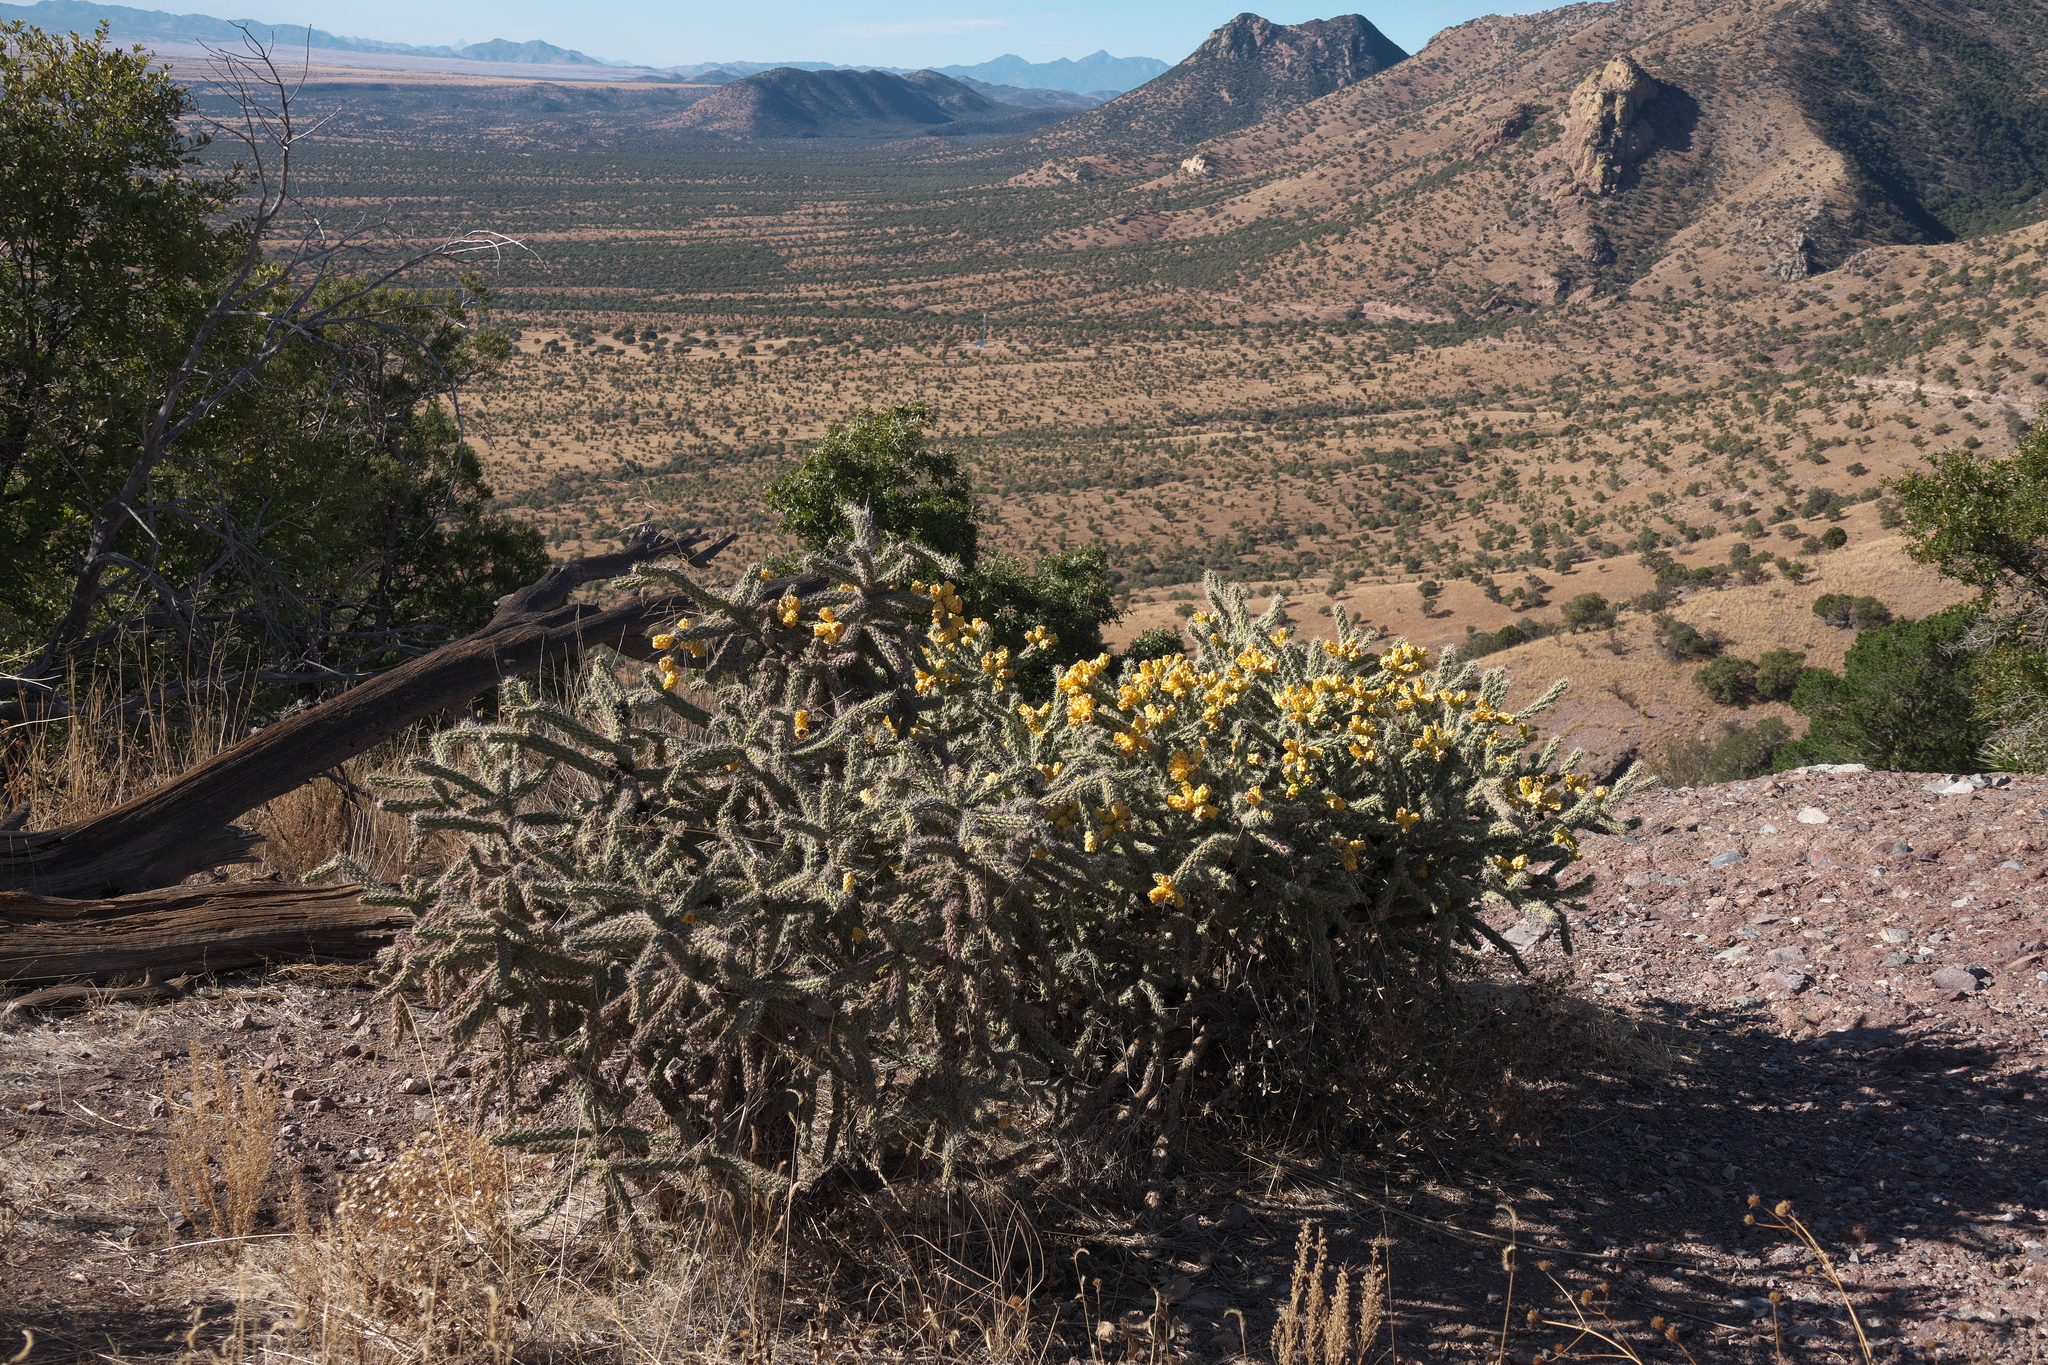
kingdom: Plantae
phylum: Tracheophyta
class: Magnoliopsida
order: Caryophyllales
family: Cactaceae
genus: Cylindropuntia
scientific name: Cylindropuntia imbricata
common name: Candelabrum cactus
